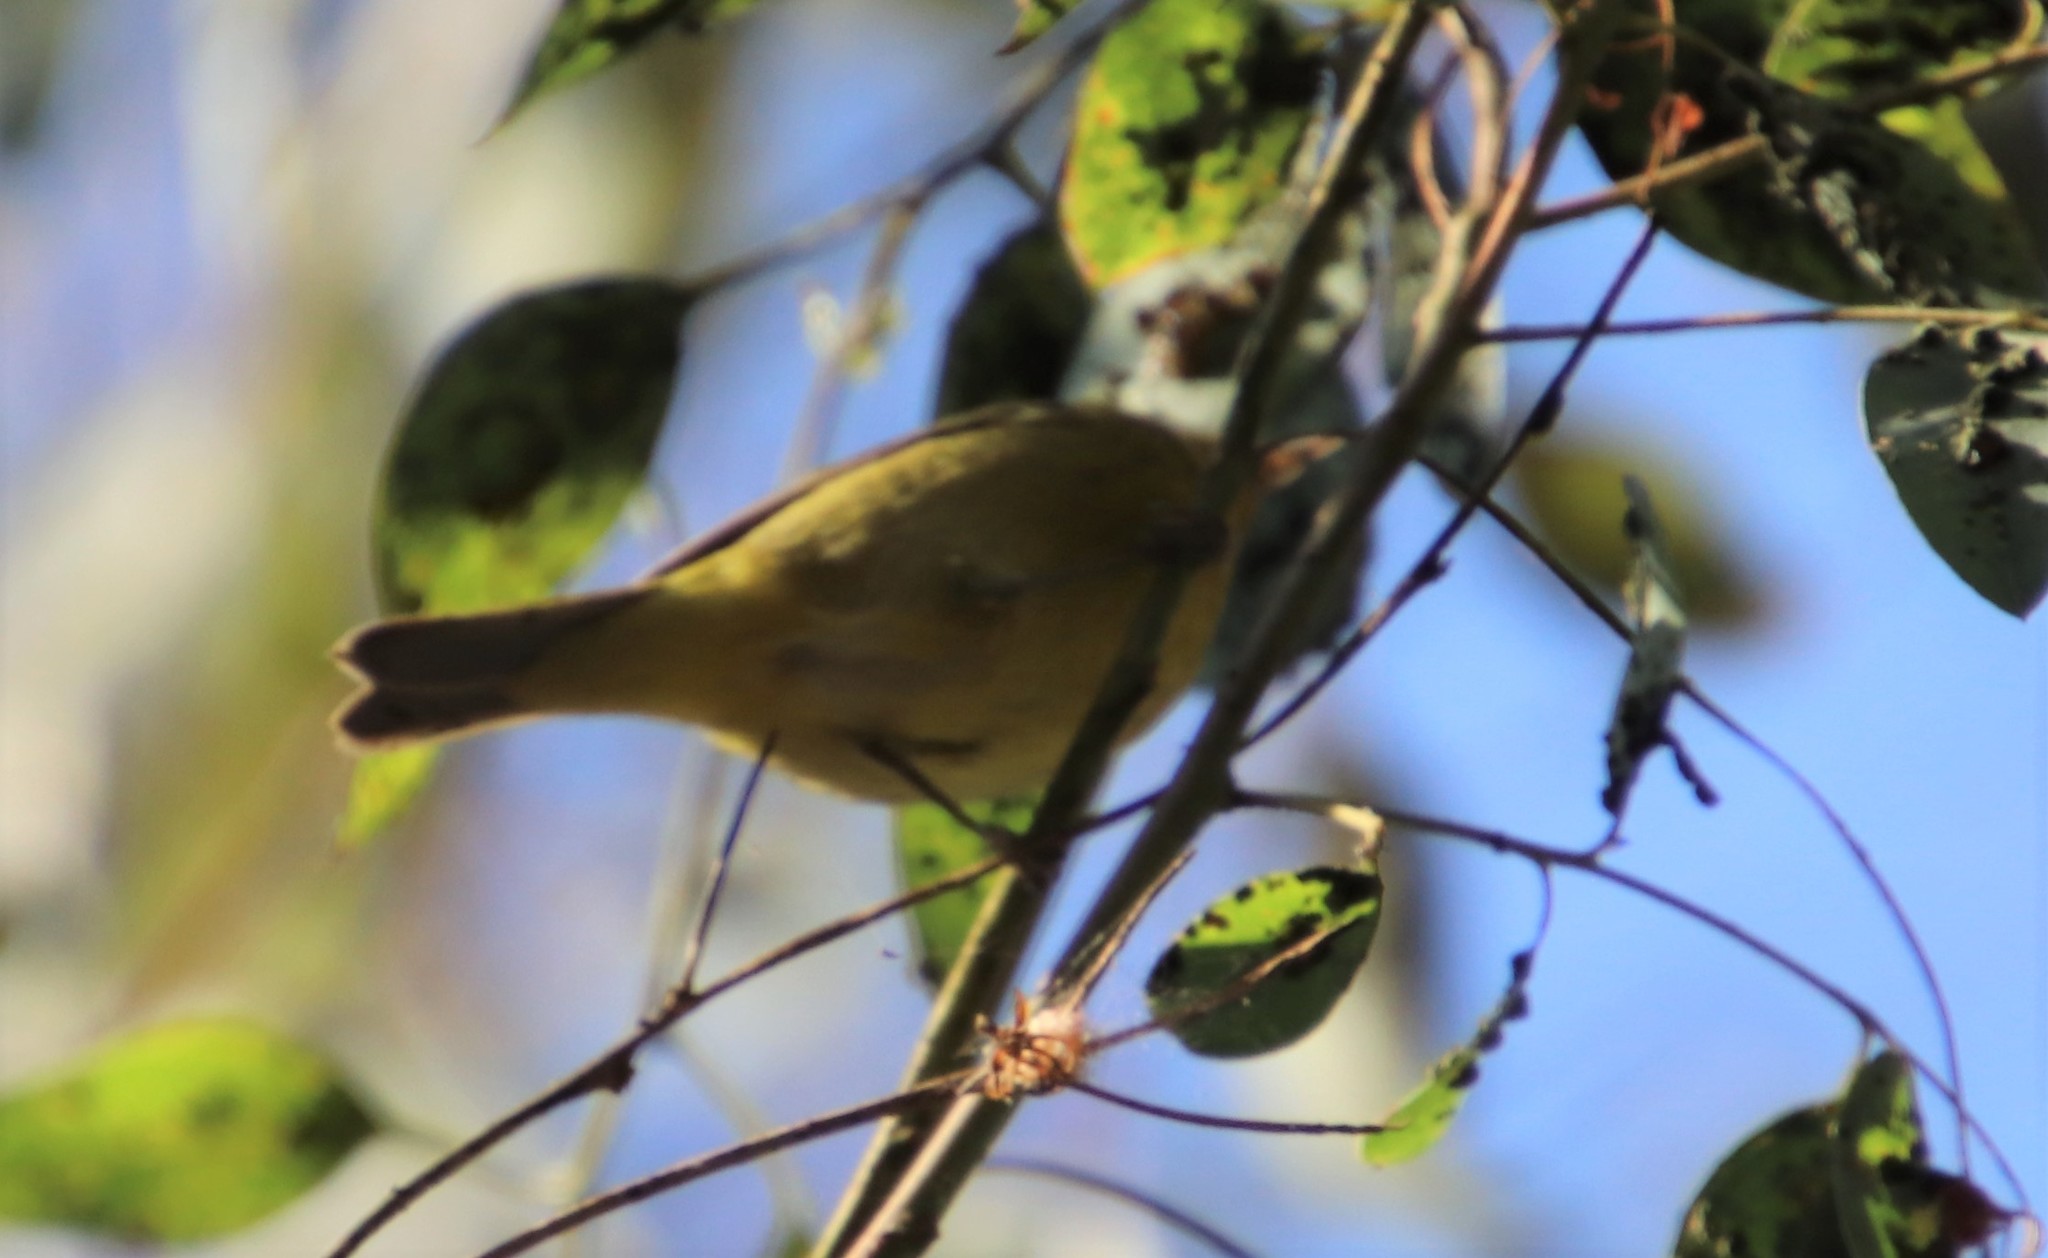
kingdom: Animalia
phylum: Chordata
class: Aves
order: Passeriformes
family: Parulidae
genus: Leiothlypis
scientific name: Leiothlypis celata
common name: Orange-crowned warbler
